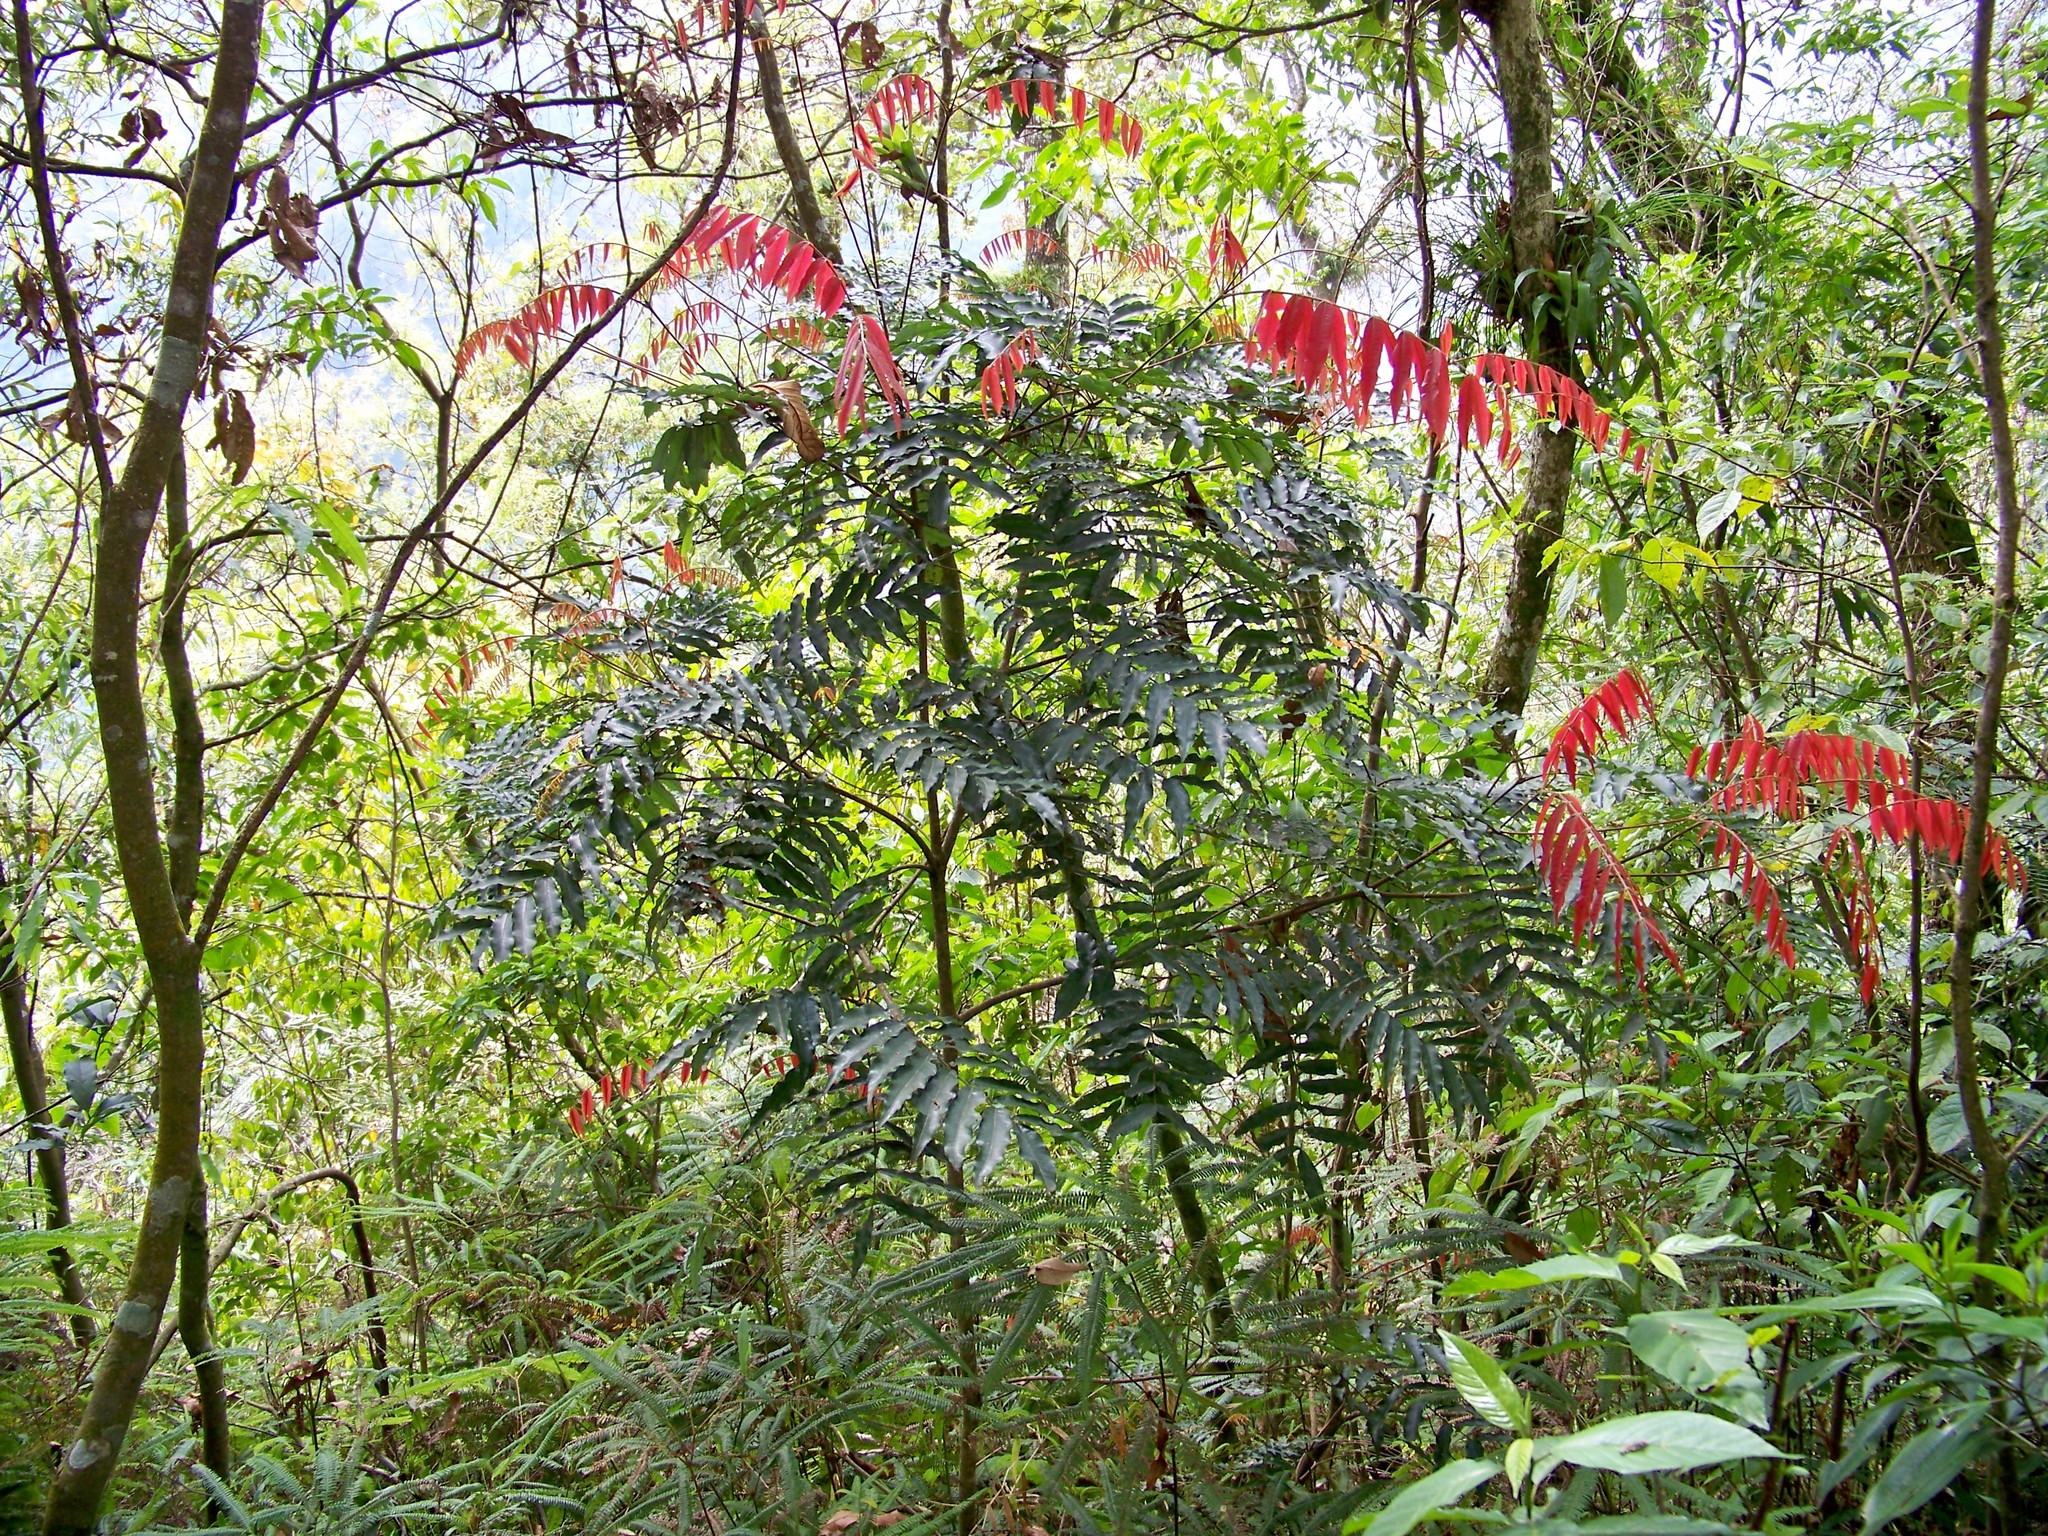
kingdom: Plantae
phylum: Tracheophyta
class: Magnoliopsida
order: Fagales
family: Juglandaceae
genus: Oreomunnea
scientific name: Oreomunnea mexicana
